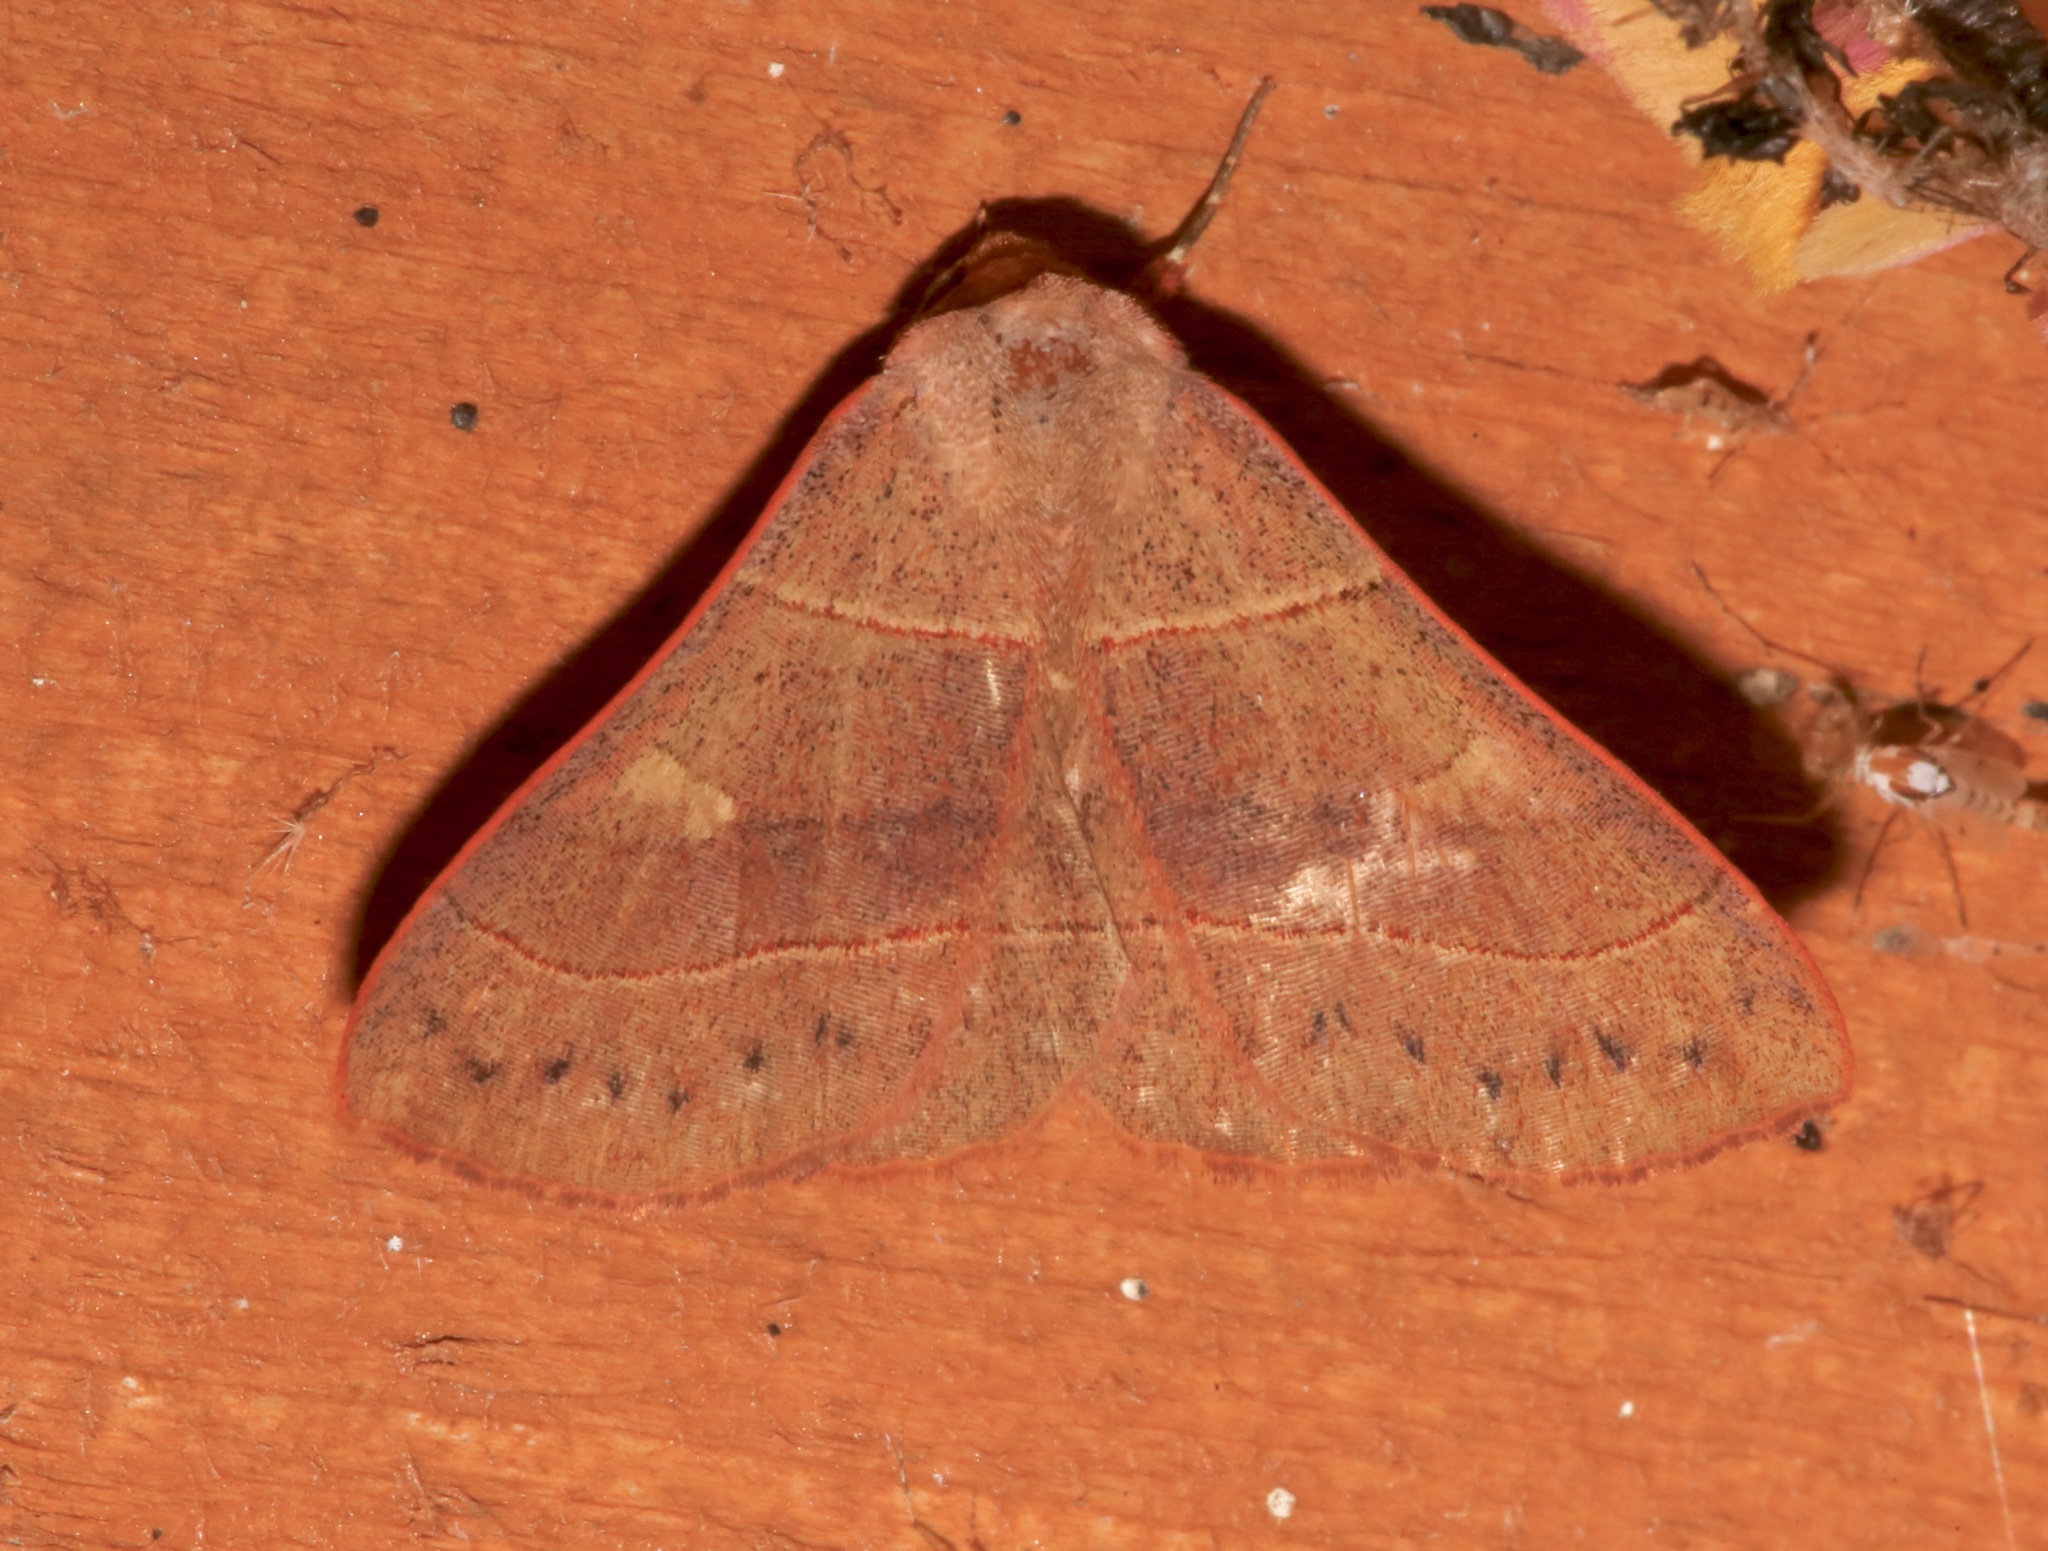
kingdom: Animalia
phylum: Arthropoda
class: Insecta
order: Lepidoptera
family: Erebidae
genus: Panopoda
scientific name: Panopoda rufimargo
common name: Red-lined panopoda moth
